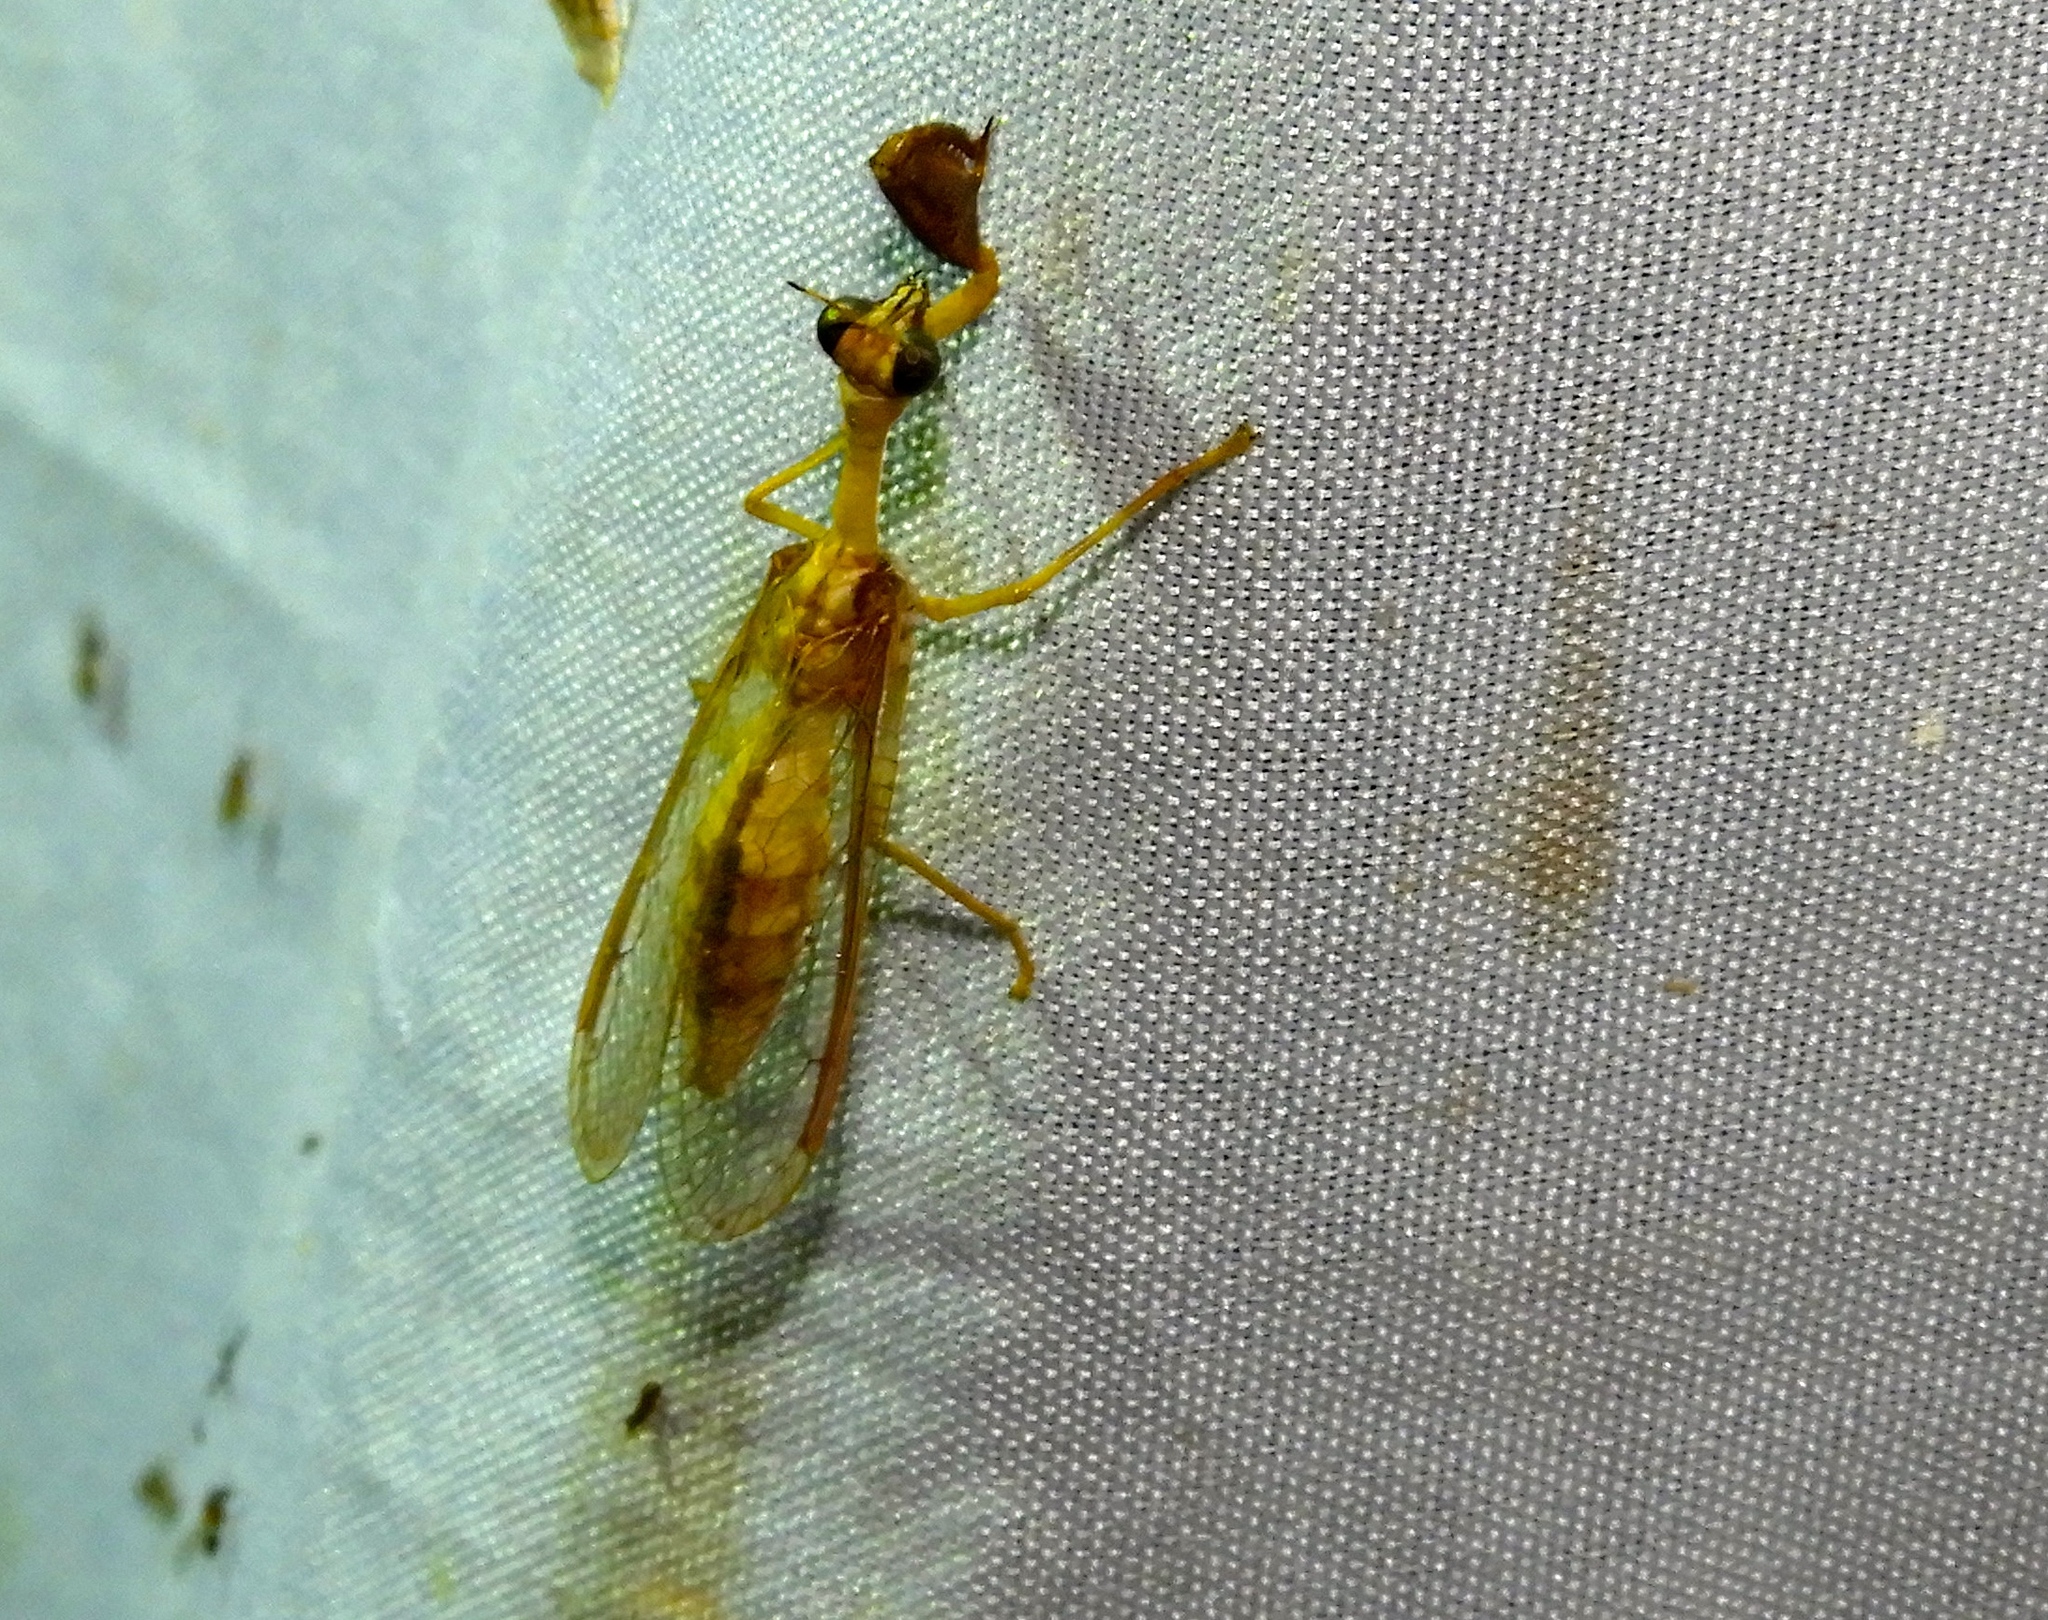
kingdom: Animalia
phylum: Arthropoda
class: Insecta
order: Neuroptera
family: Mantispidae
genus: Dicromantispa
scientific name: Dicromantispa
